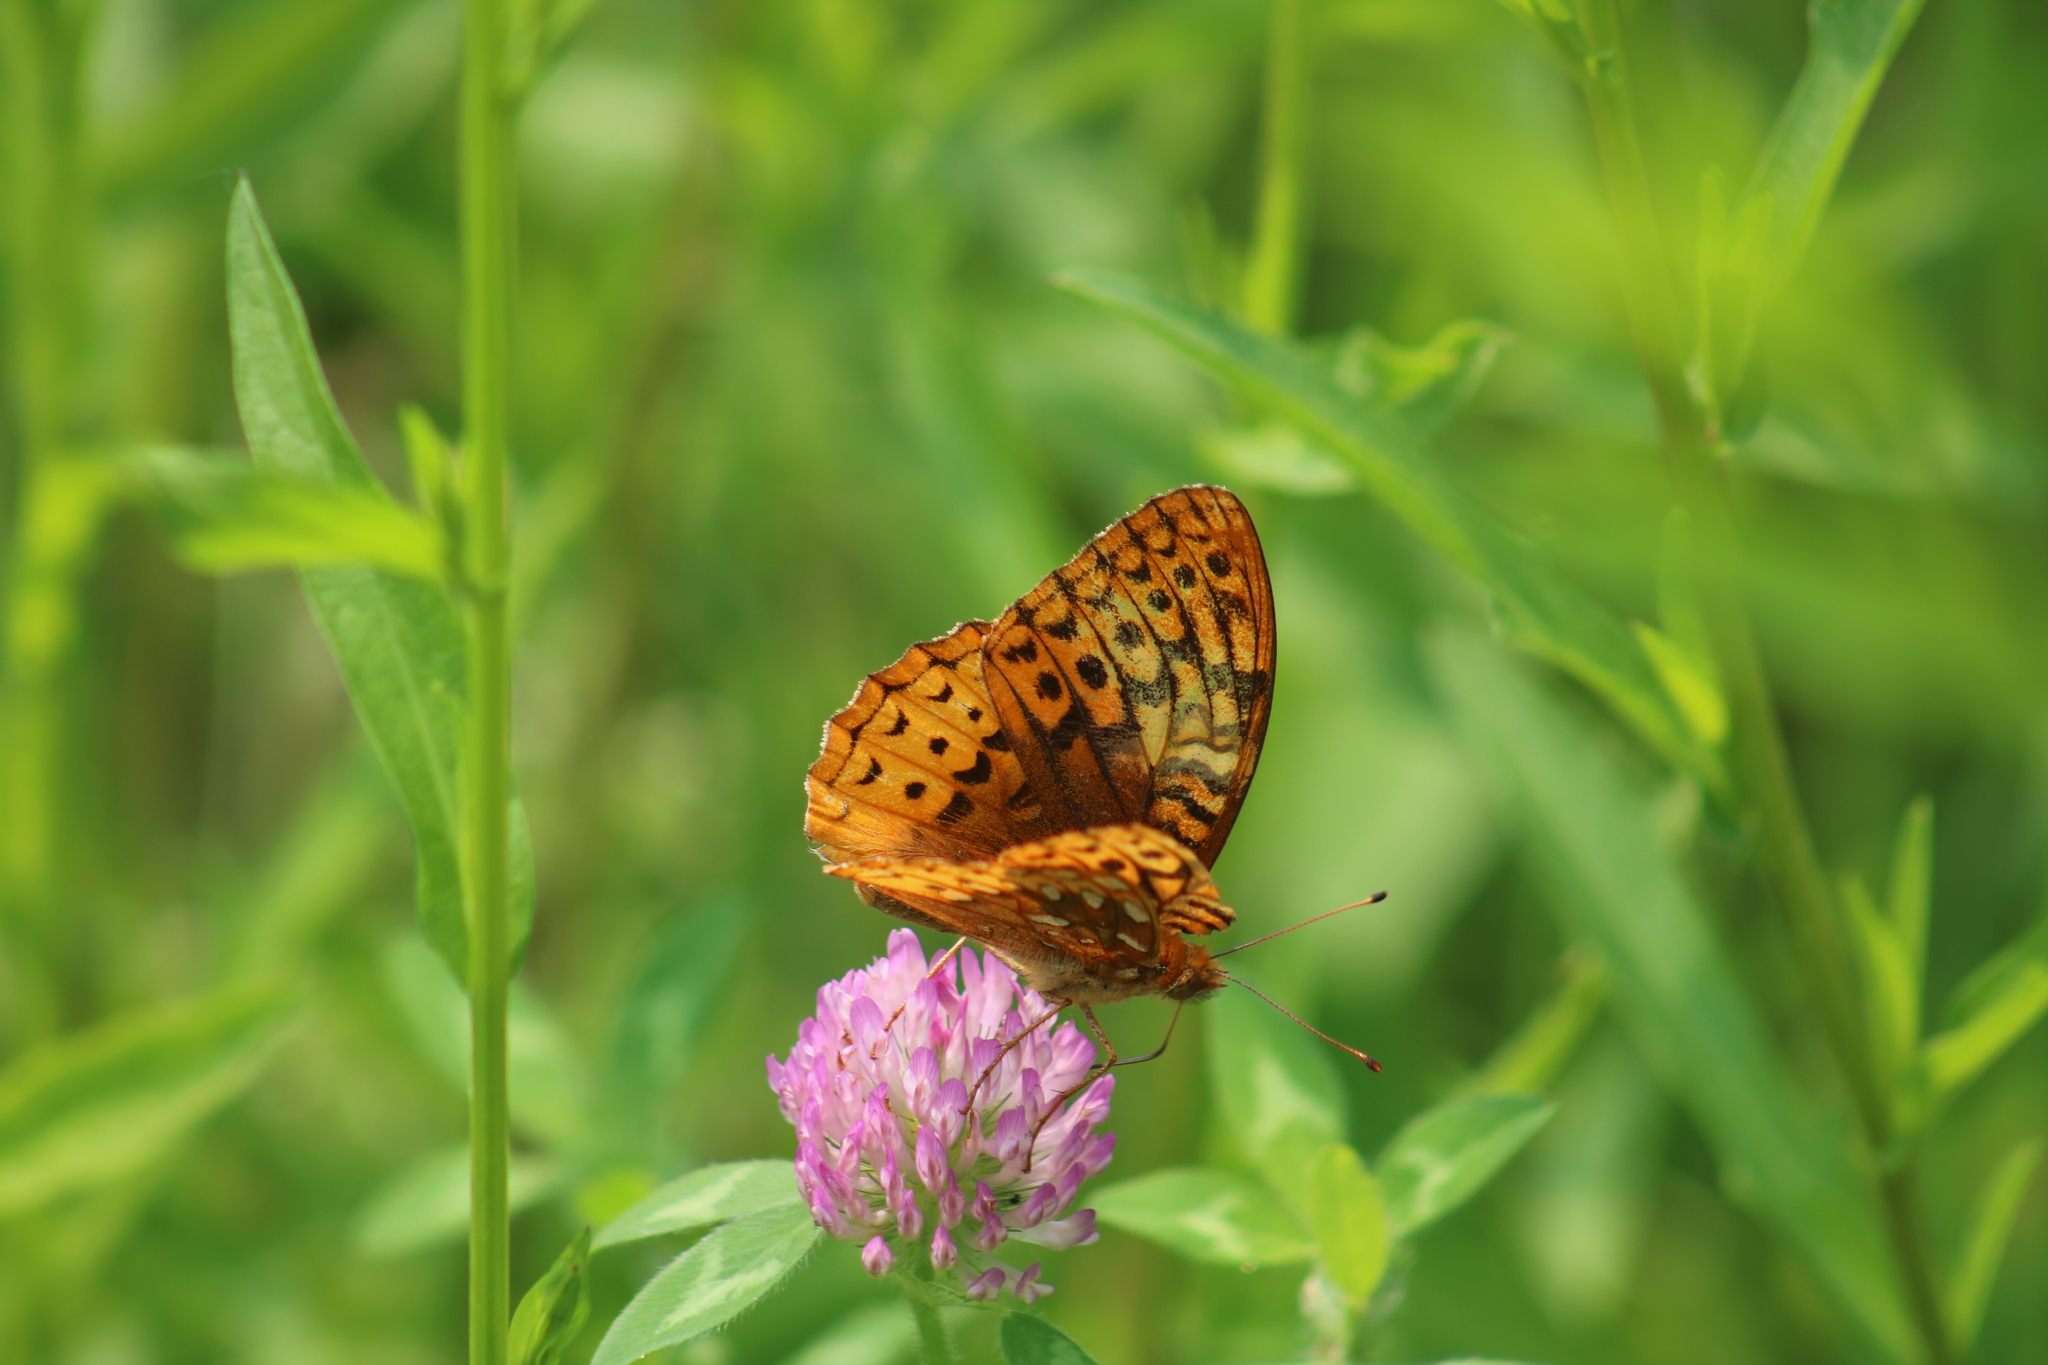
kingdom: Animalia
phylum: Arthropoda
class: Insecta
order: Lepidoptera
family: Nymphalidae
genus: Speyeria
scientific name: Speyeria cybele
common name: Great spangled fritillary
